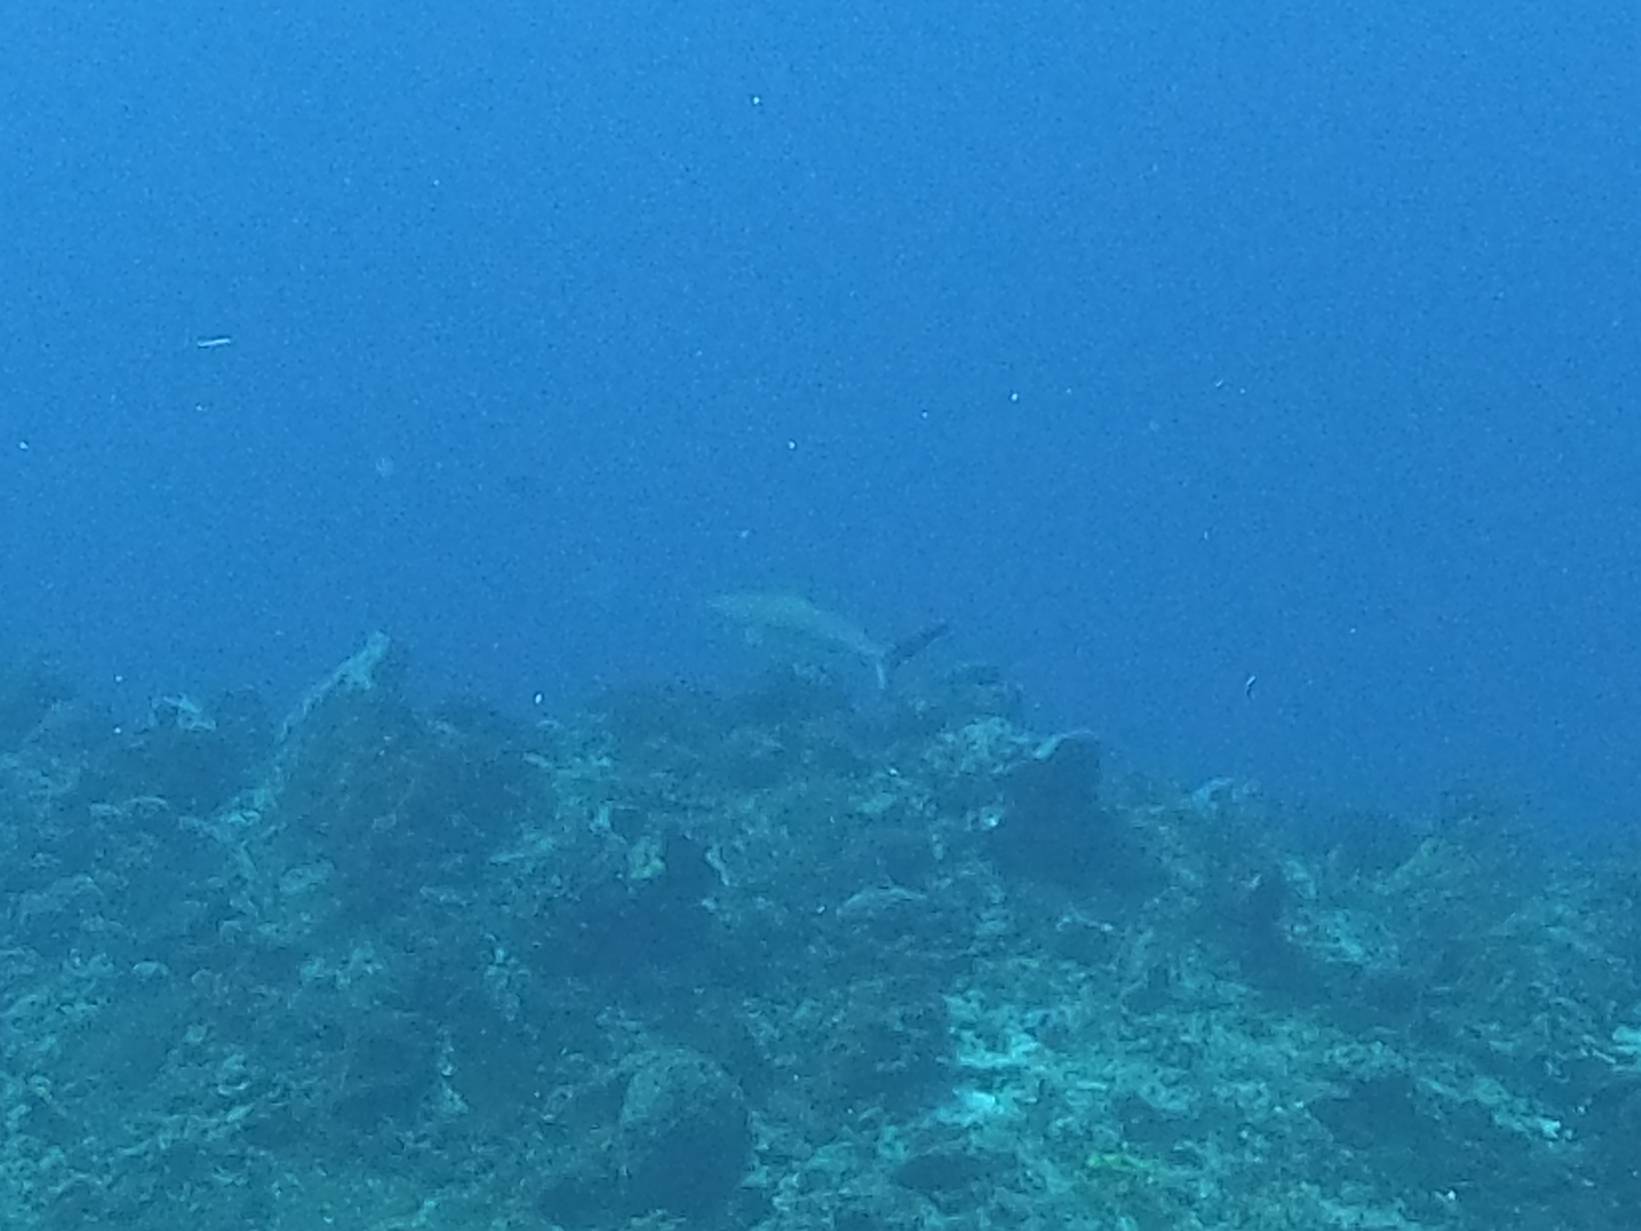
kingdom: Animalia
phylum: Chordata
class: Elasmobranchii
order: Carcharhiniformes
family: Carcharhinidae
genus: Carcharhinus
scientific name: Carcharhinus perezii
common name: Reef shark
